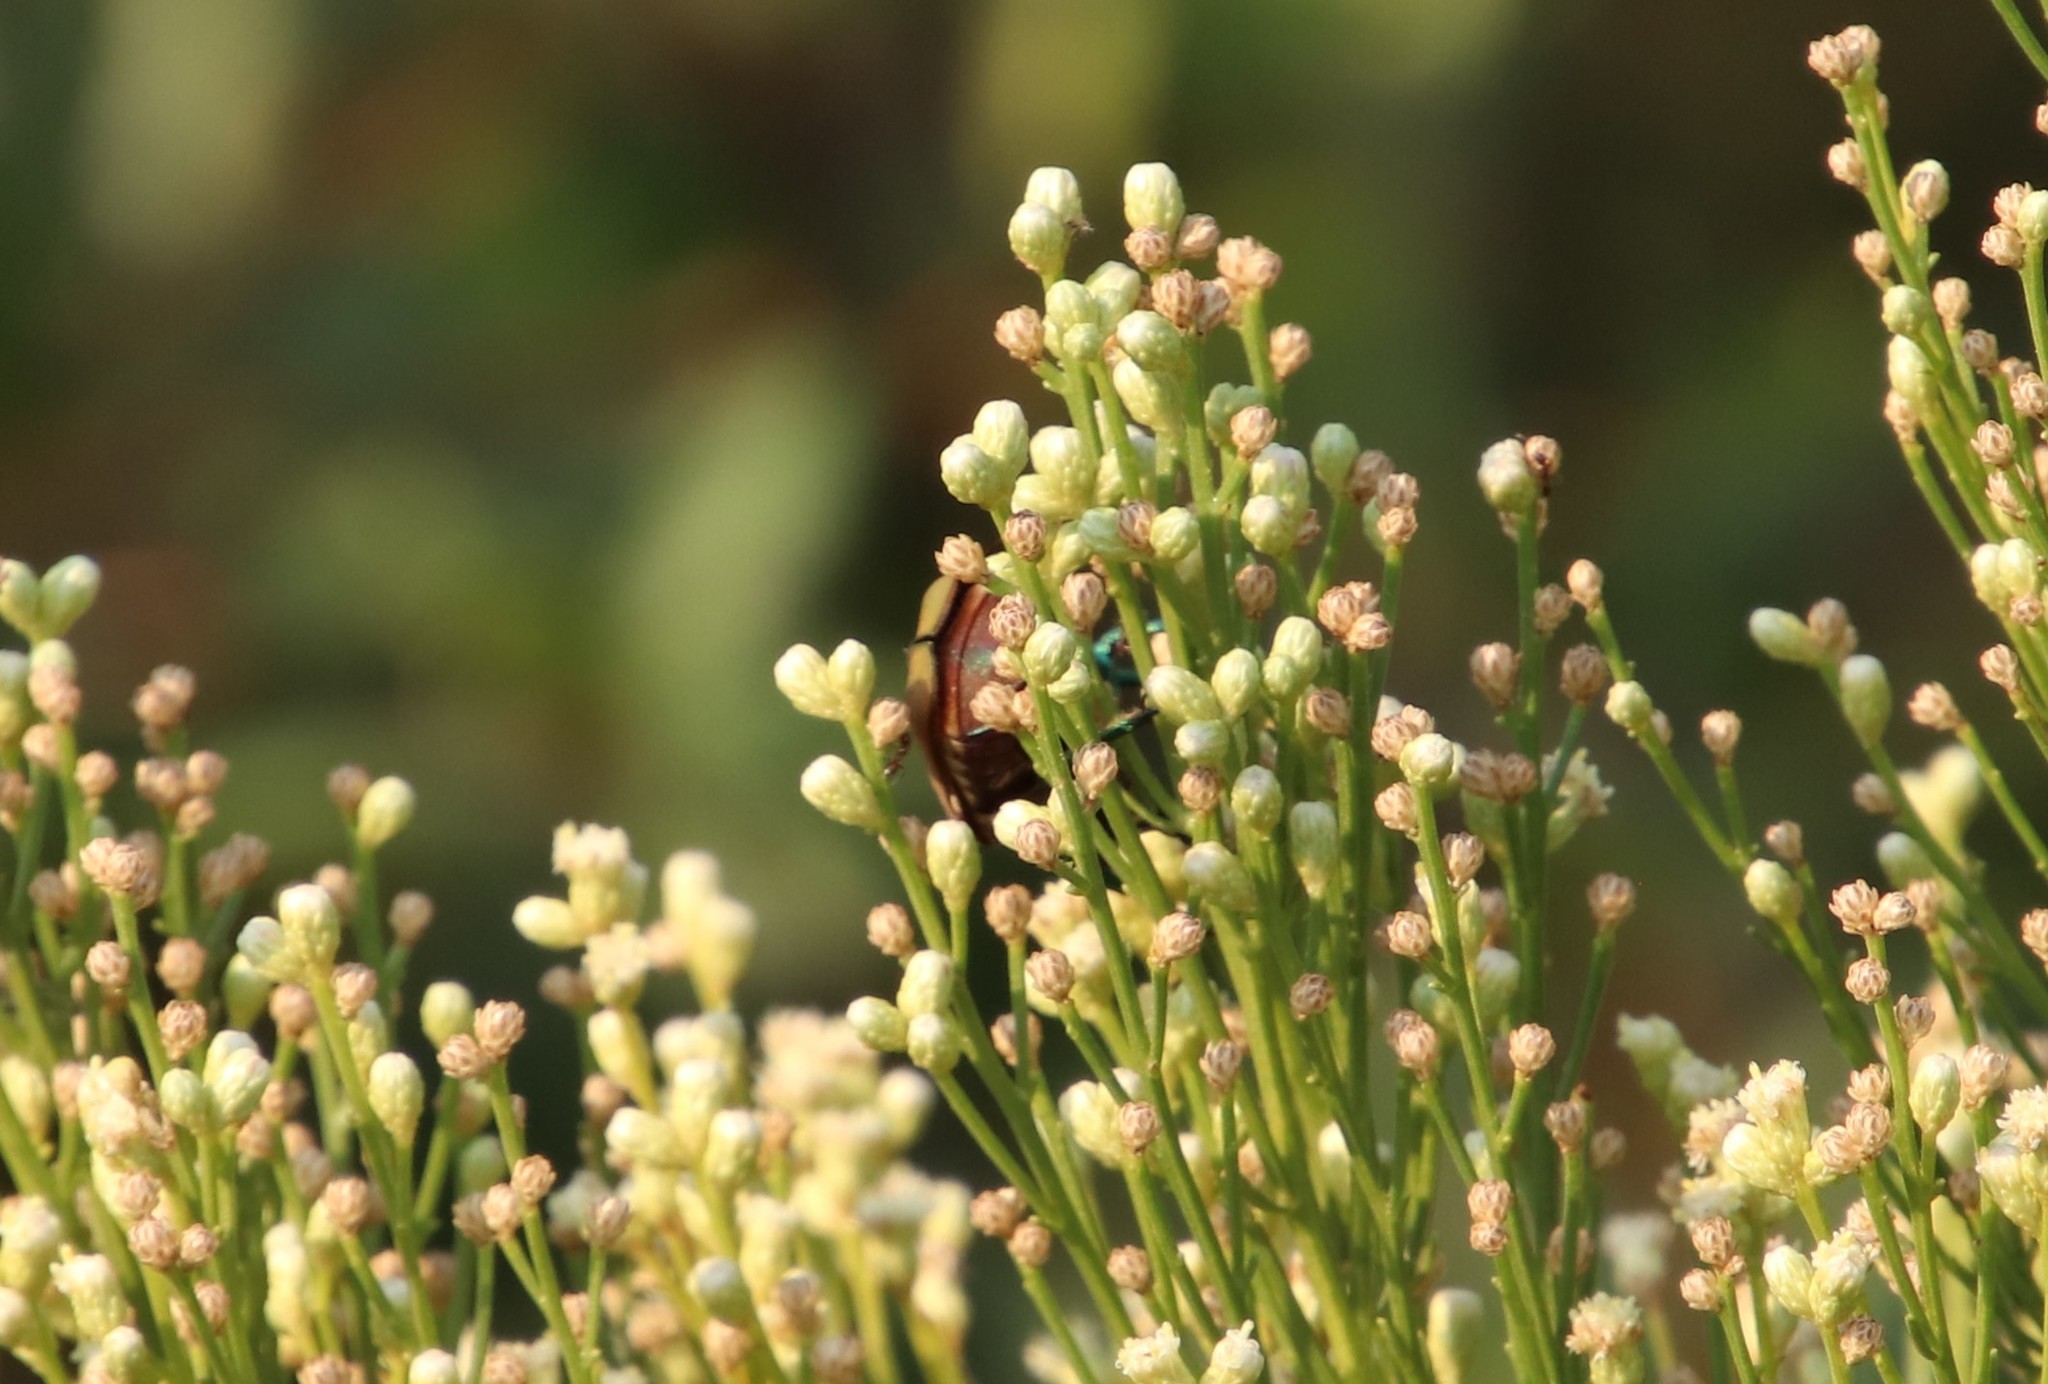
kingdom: Animalia
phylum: Arthropoda
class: Insecta
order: Coleoptera
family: Scarabaeidae
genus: Cotinis
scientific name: Cotinis mutabilis
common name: Figeater beetle
